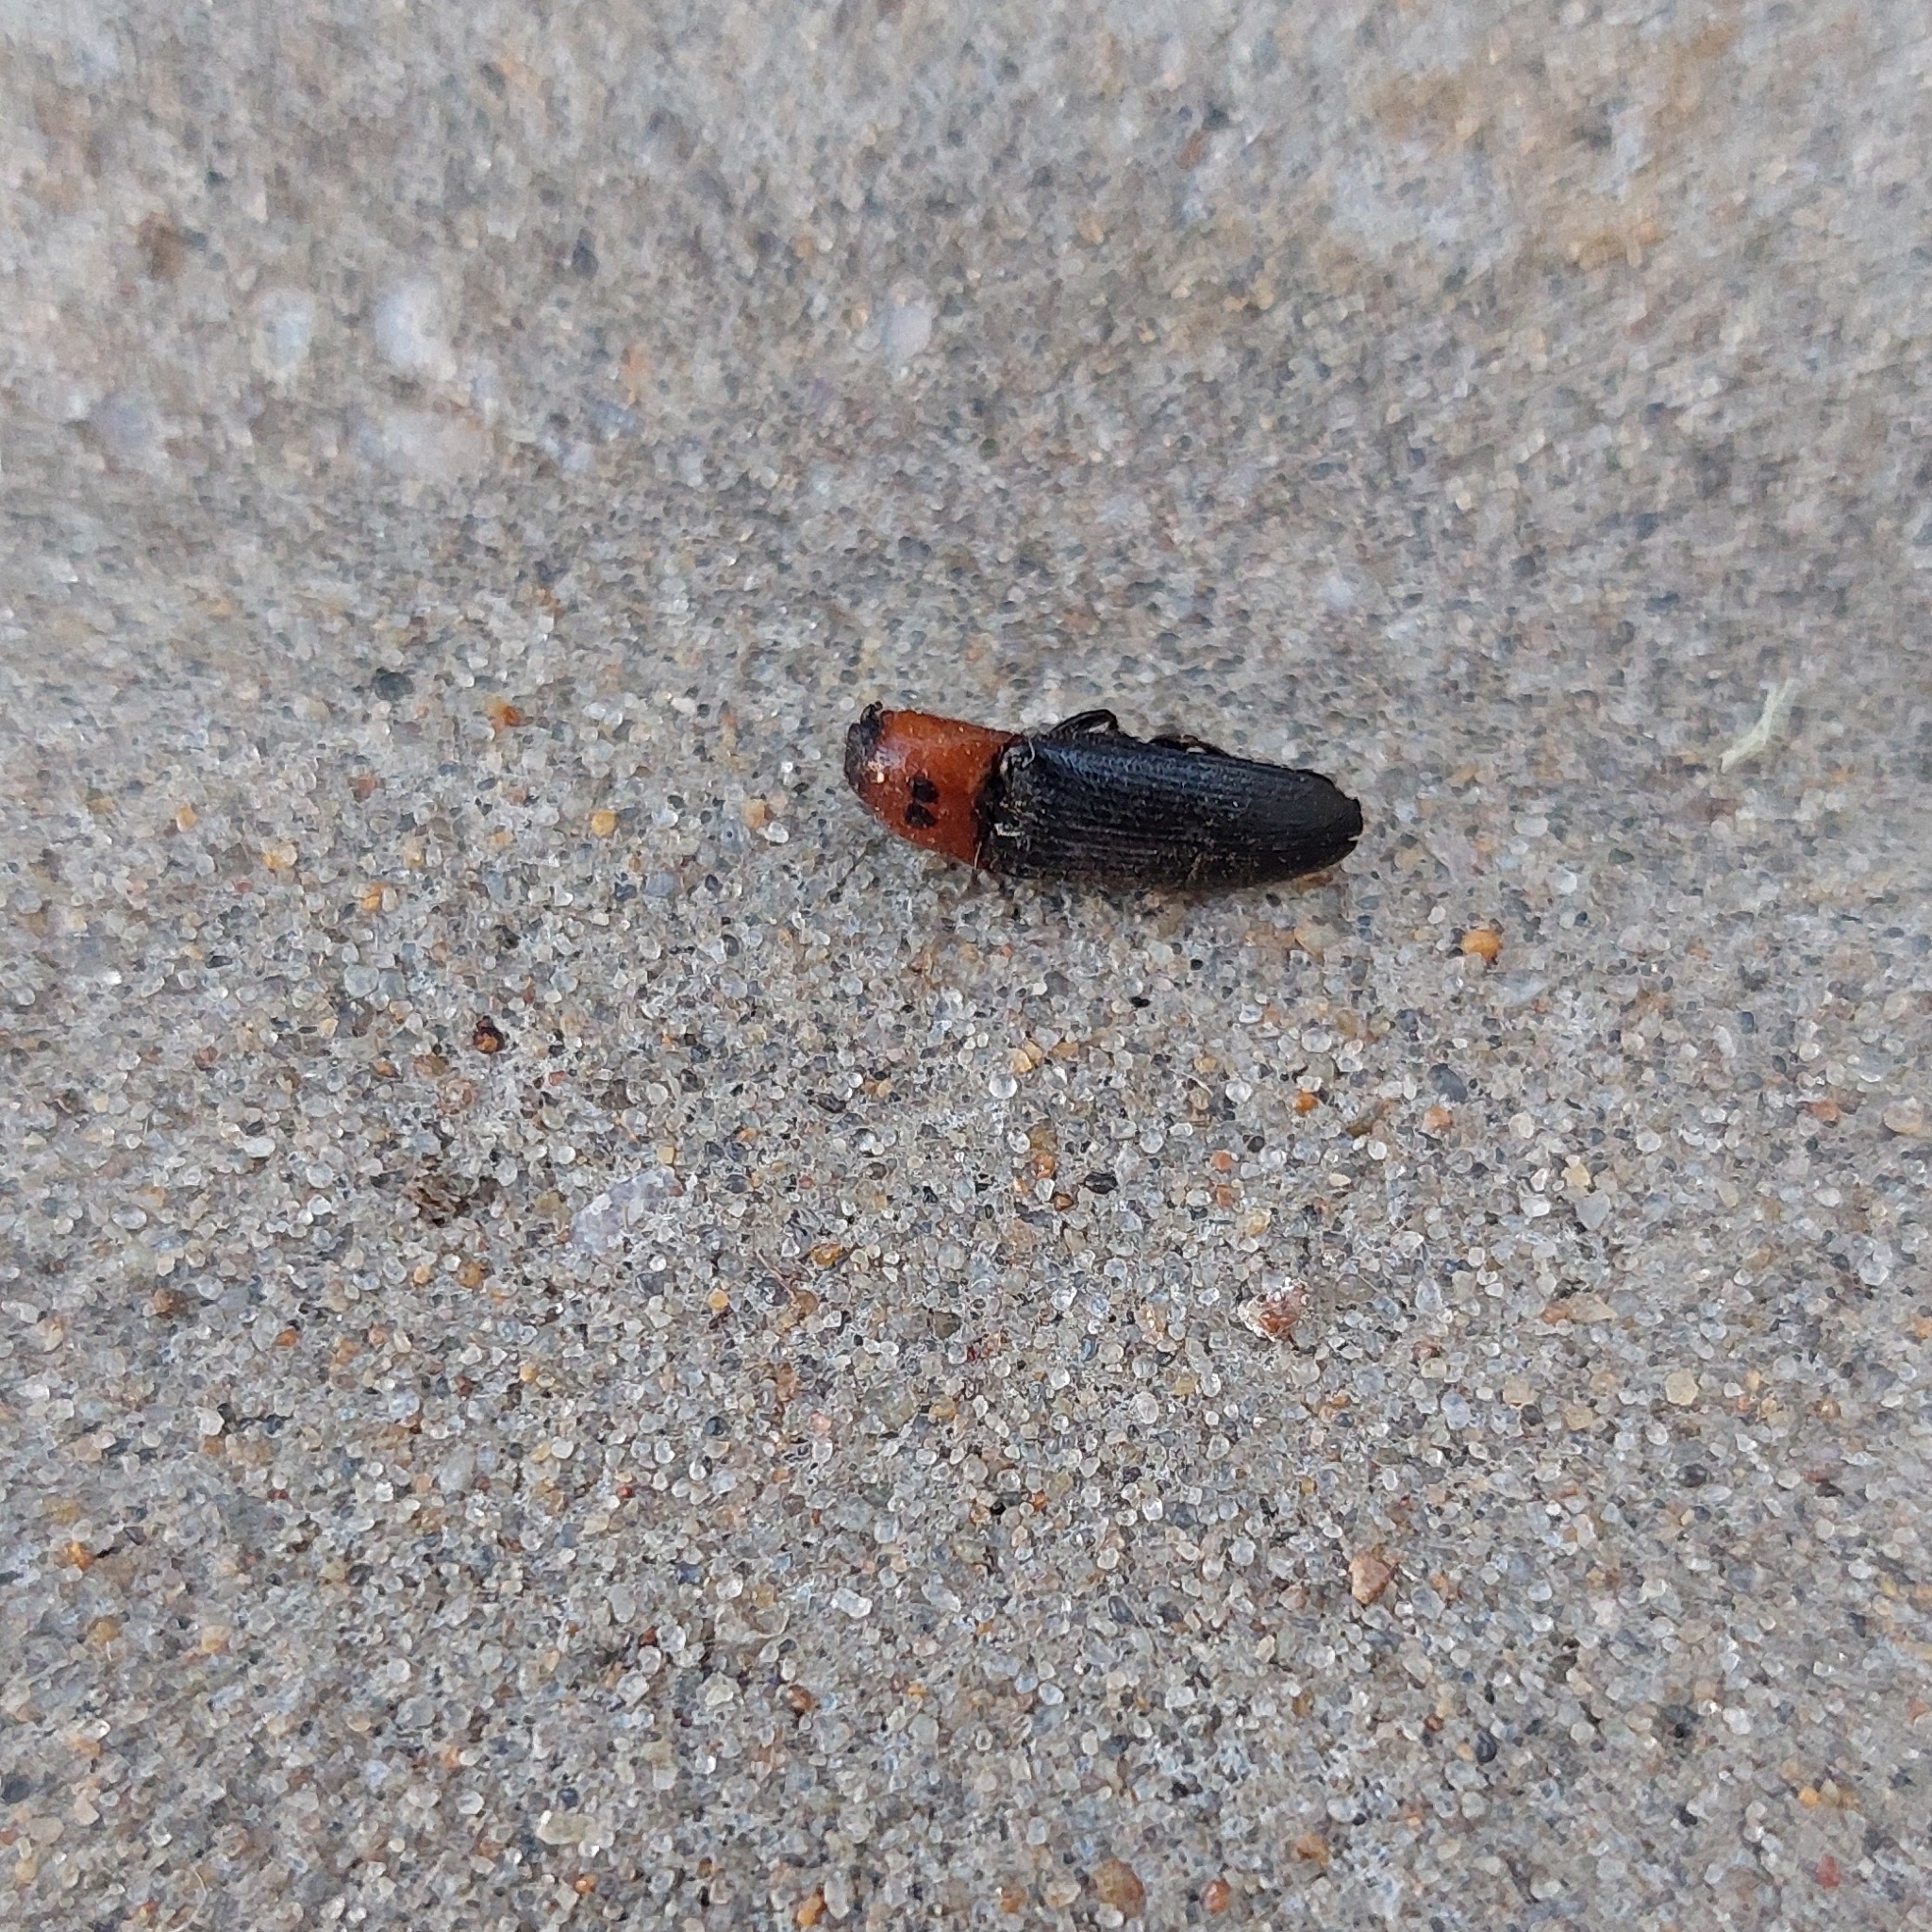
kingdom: Animalia
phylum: Arthropoda
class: Insecta
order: Coleoptera
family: Elateridae
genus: Anoplischius
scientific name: Anoplischius
